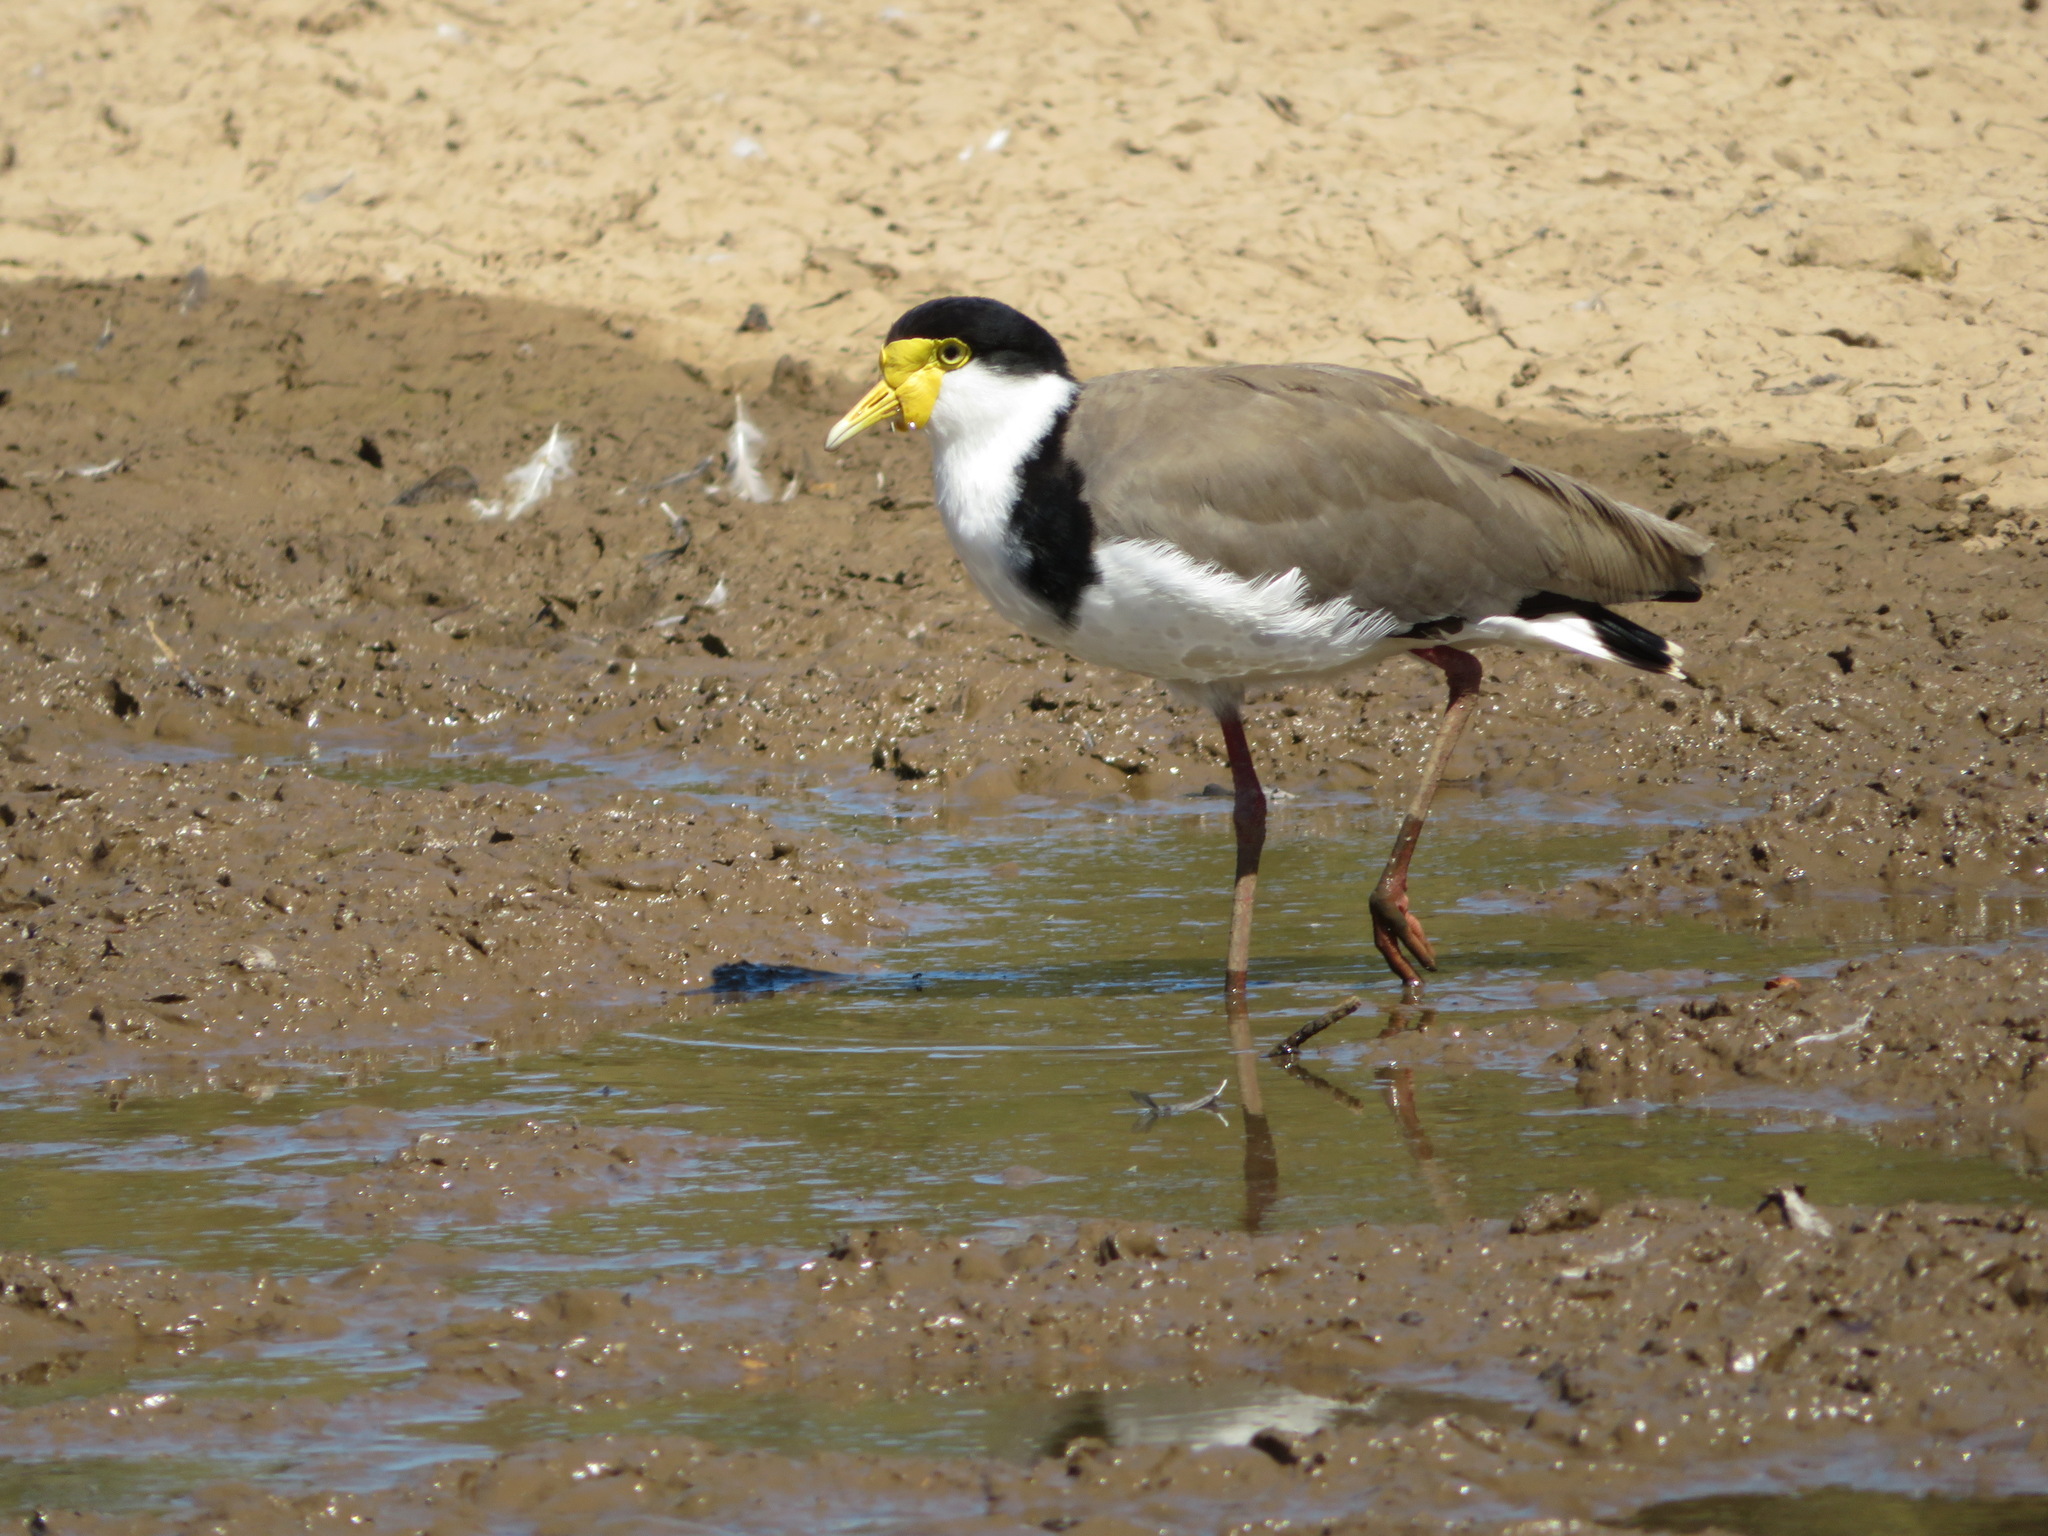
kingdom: Animalia
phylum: Chordata
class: Aves
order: Charadriiformes
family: Charadriidae
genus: Vanellus
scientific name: Vanellus miles
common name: Masked lapwing
